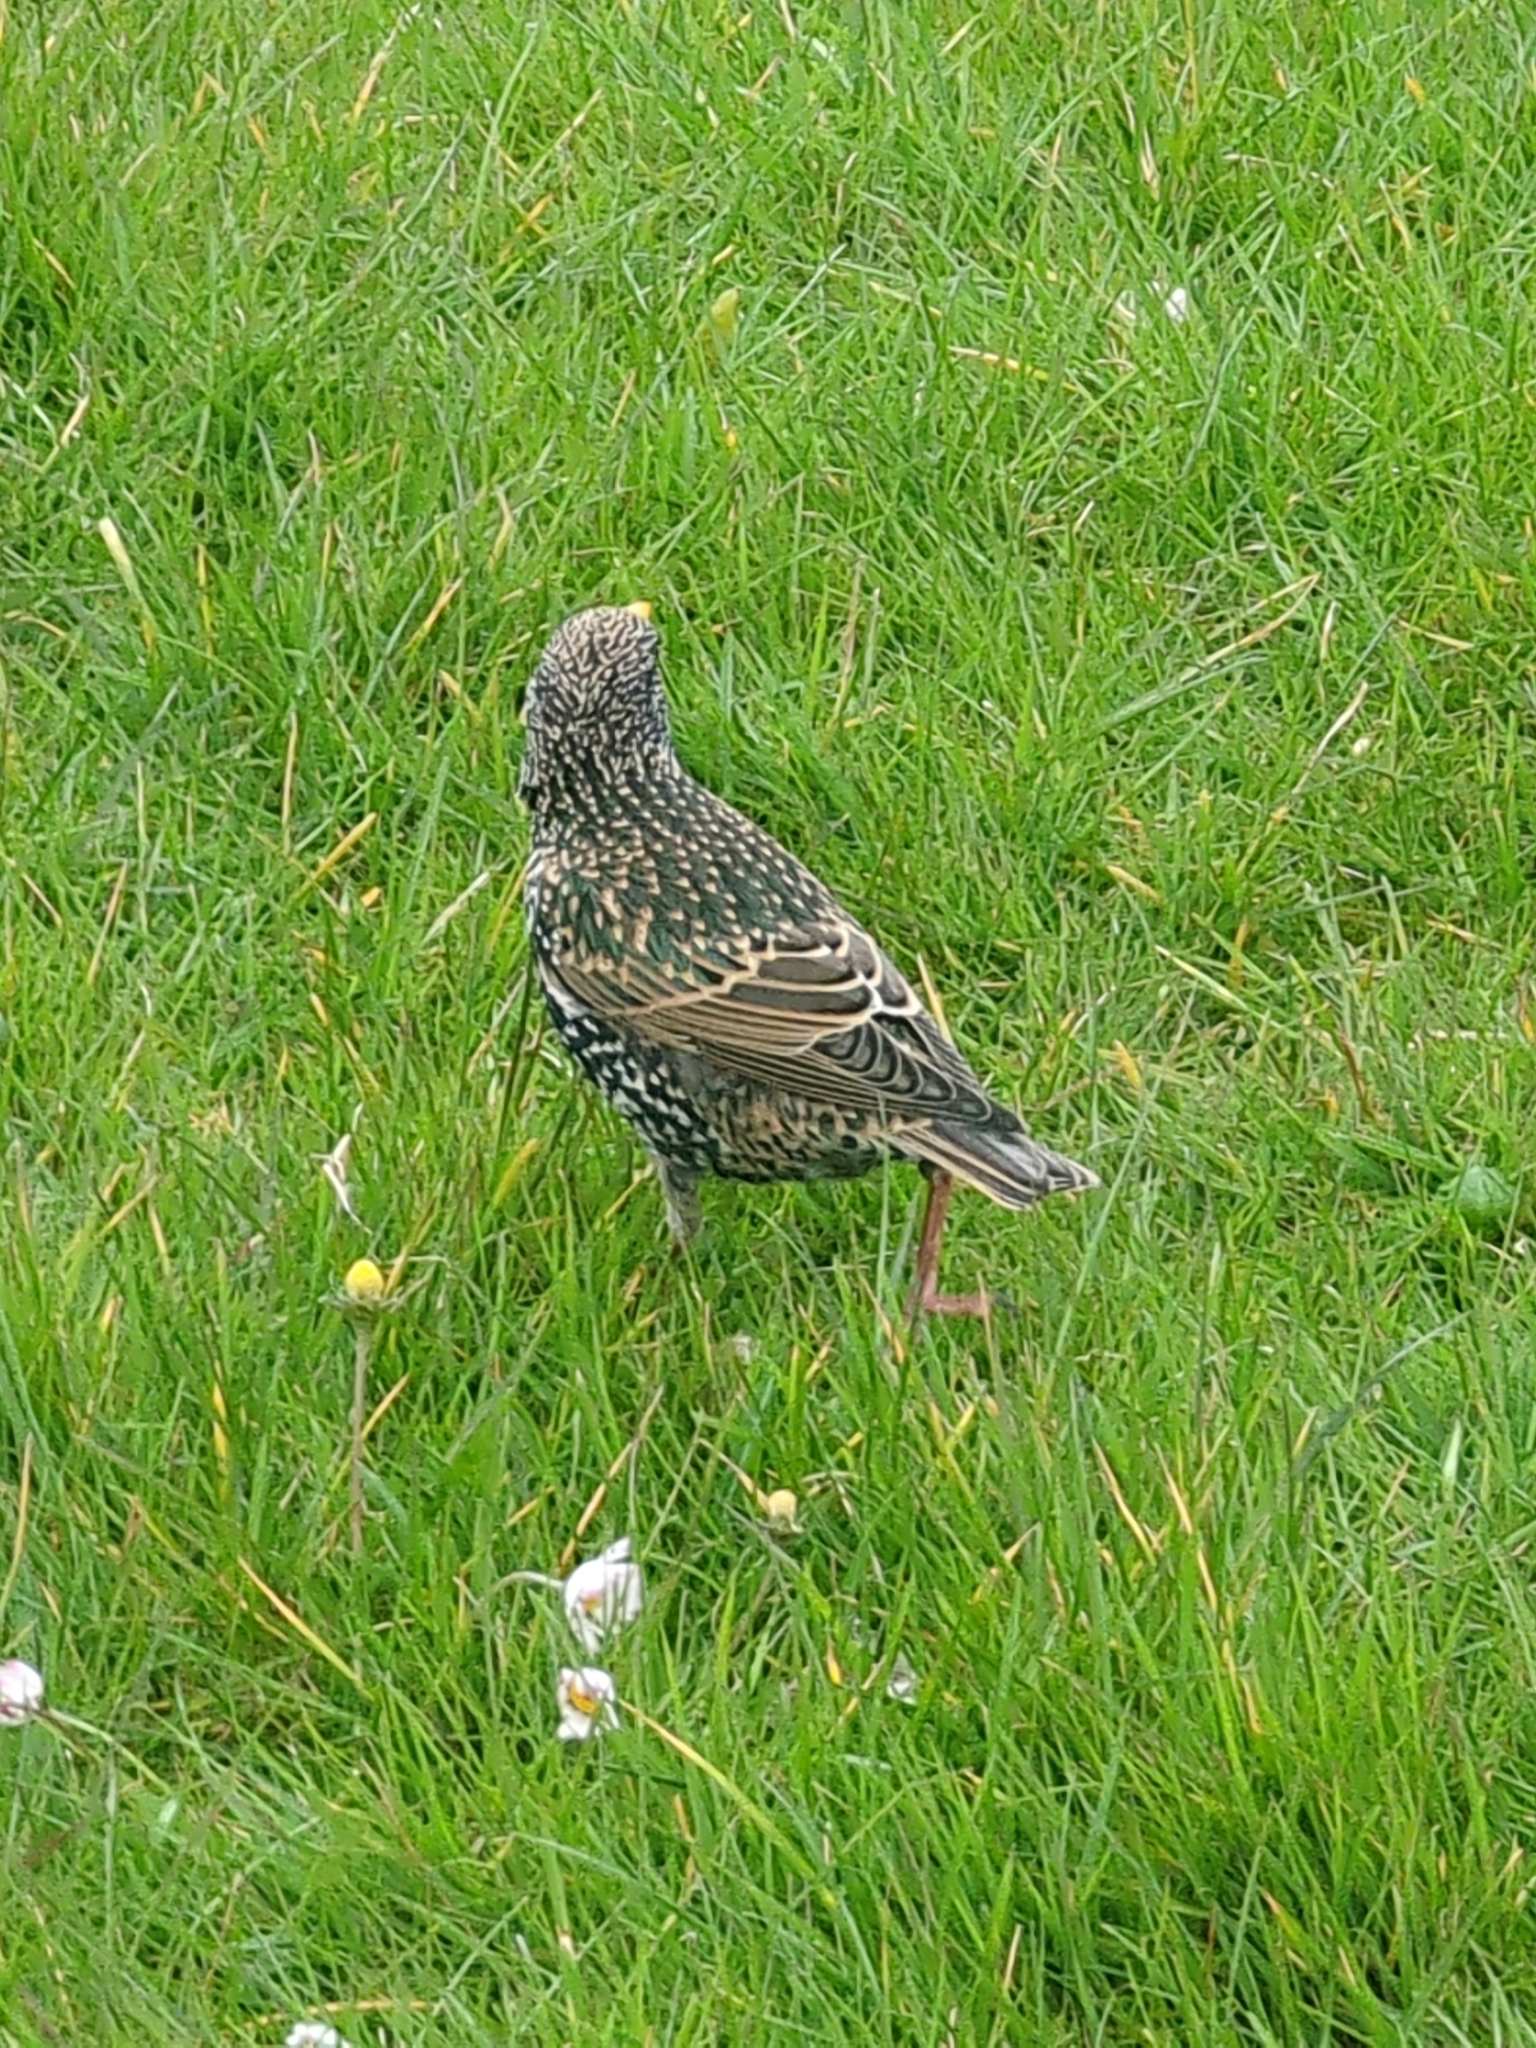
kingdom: Animalia
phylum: Chordata
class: Aves
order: Passeriformes
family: Sturnidae
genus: Sturnus
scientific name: Sturnus vulgaris
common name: Common starling
